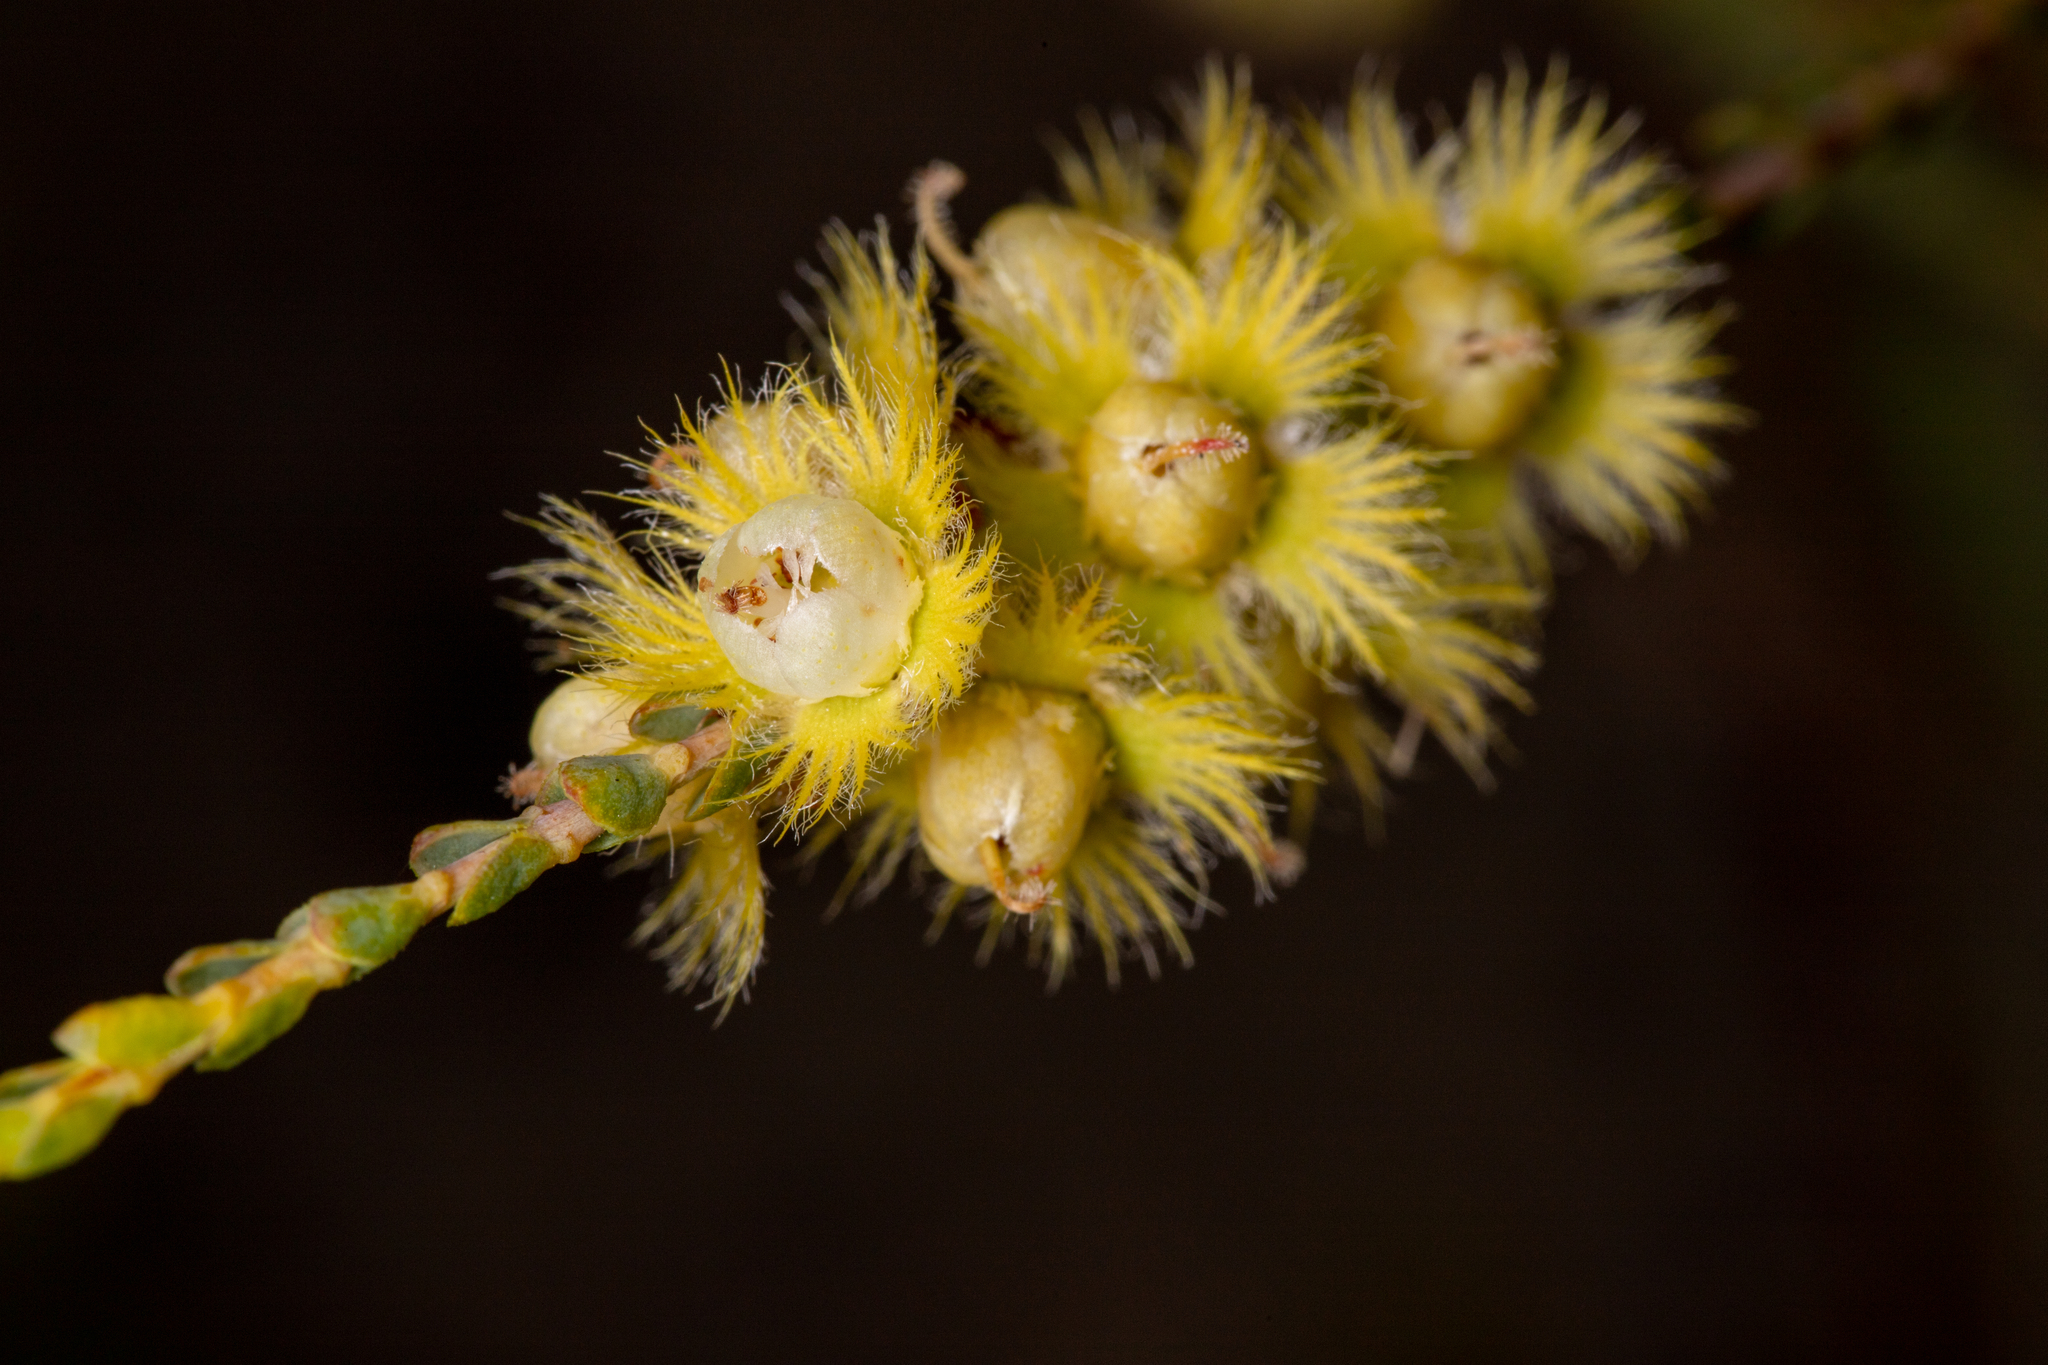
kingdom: Plantae
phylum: Tracheophyta
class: Magnoliopsida
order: Myrtales
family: Myrtaceae
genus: Verticordia
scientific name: Verticordia lepidophylla
